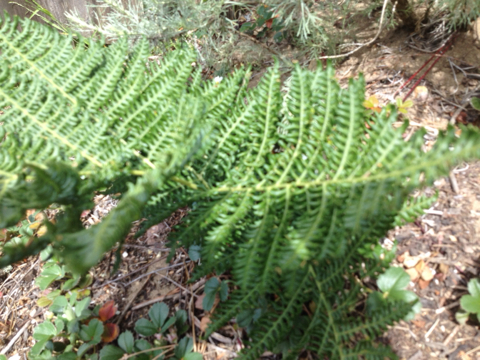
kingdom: Plantae
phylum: Tracheophyta
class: Polypodiopsida
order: Polypodiales
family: Dennstaedtiaceae
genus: Pteridium
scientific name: Pteridium aquilinum
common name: Bracken
